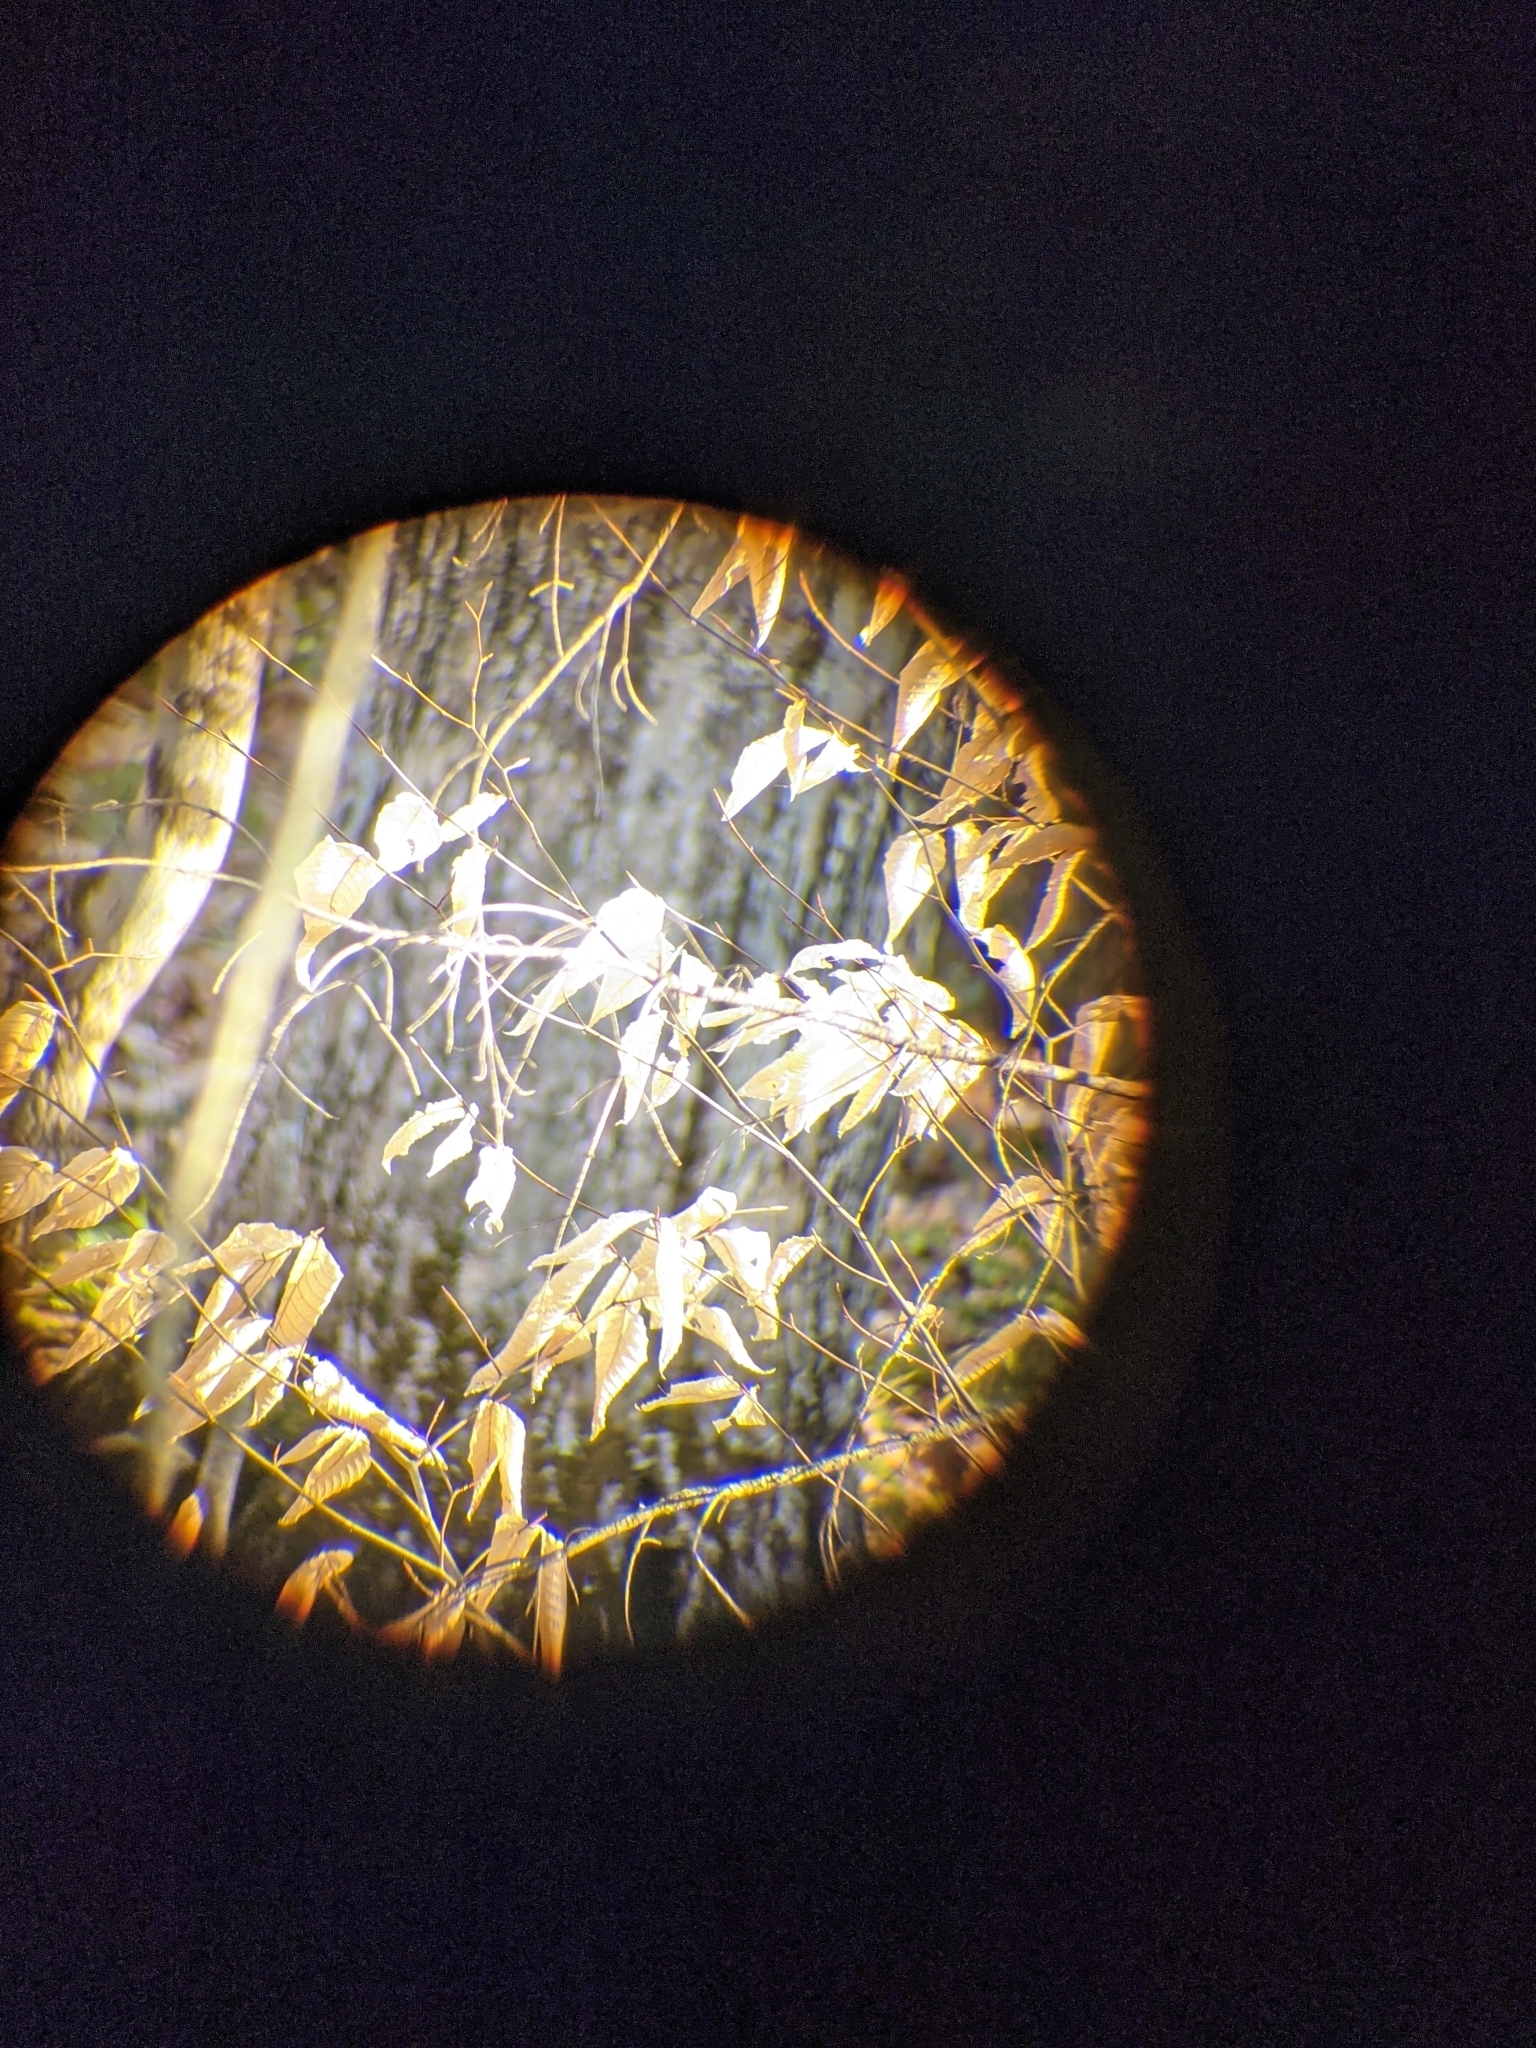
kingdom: Plantae
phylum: Tracheophyta
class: Magnoliopsida
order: Fagales
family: Fagaceae
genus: Fagus
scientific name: Fagus grandifolia
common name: American beech
